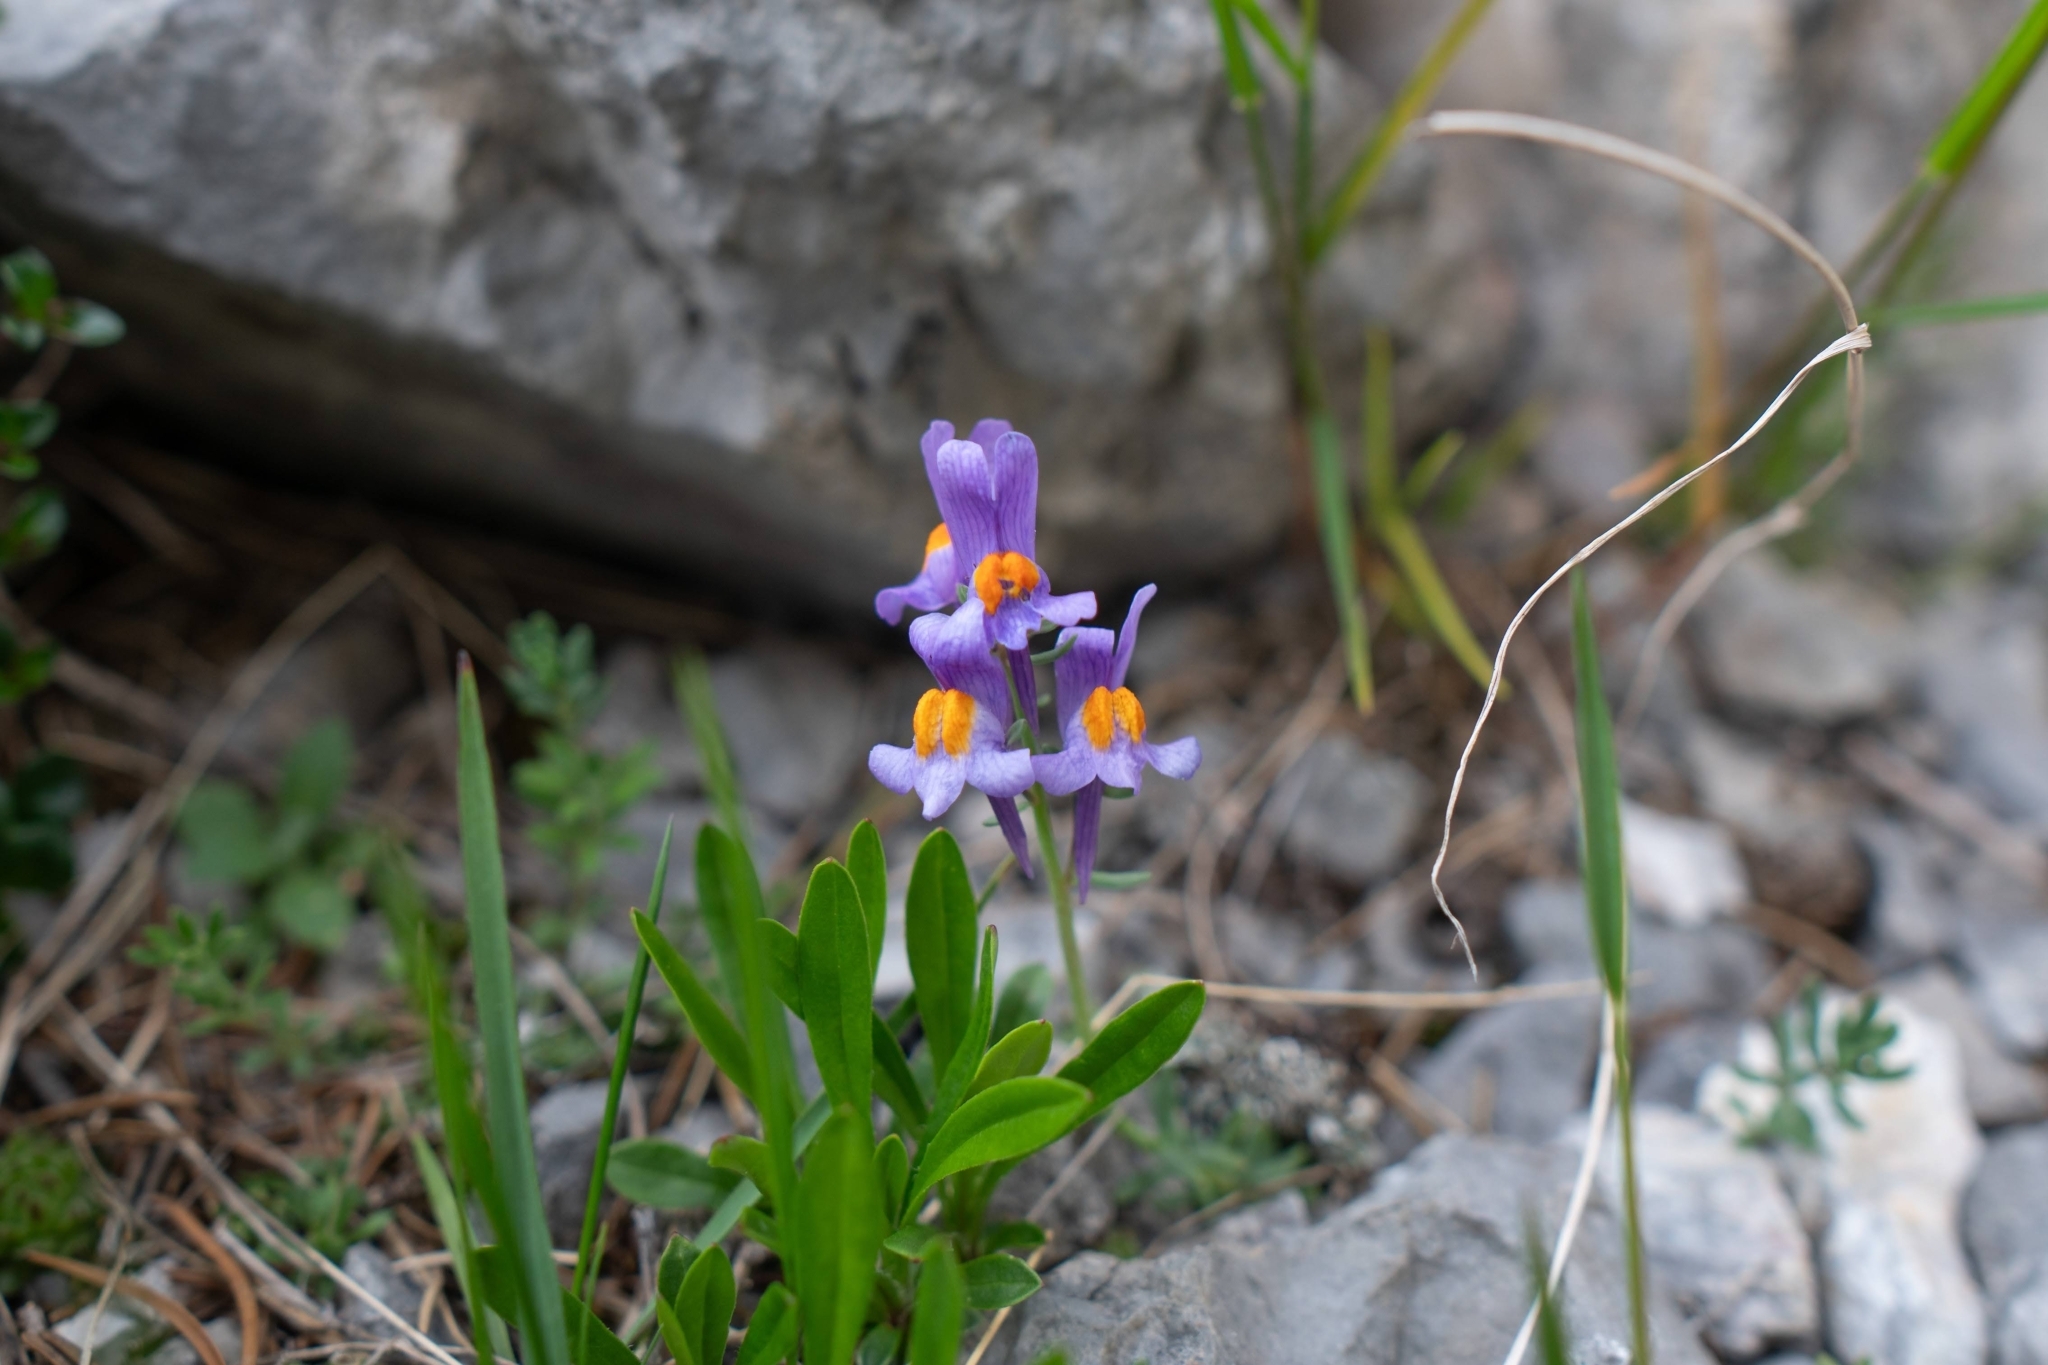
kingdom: Plantae
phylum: Tracheophyta
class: Magnoliopsida
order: Lamiales
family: Plantaginaceae
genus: Linaria
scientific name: Linaria alpina
